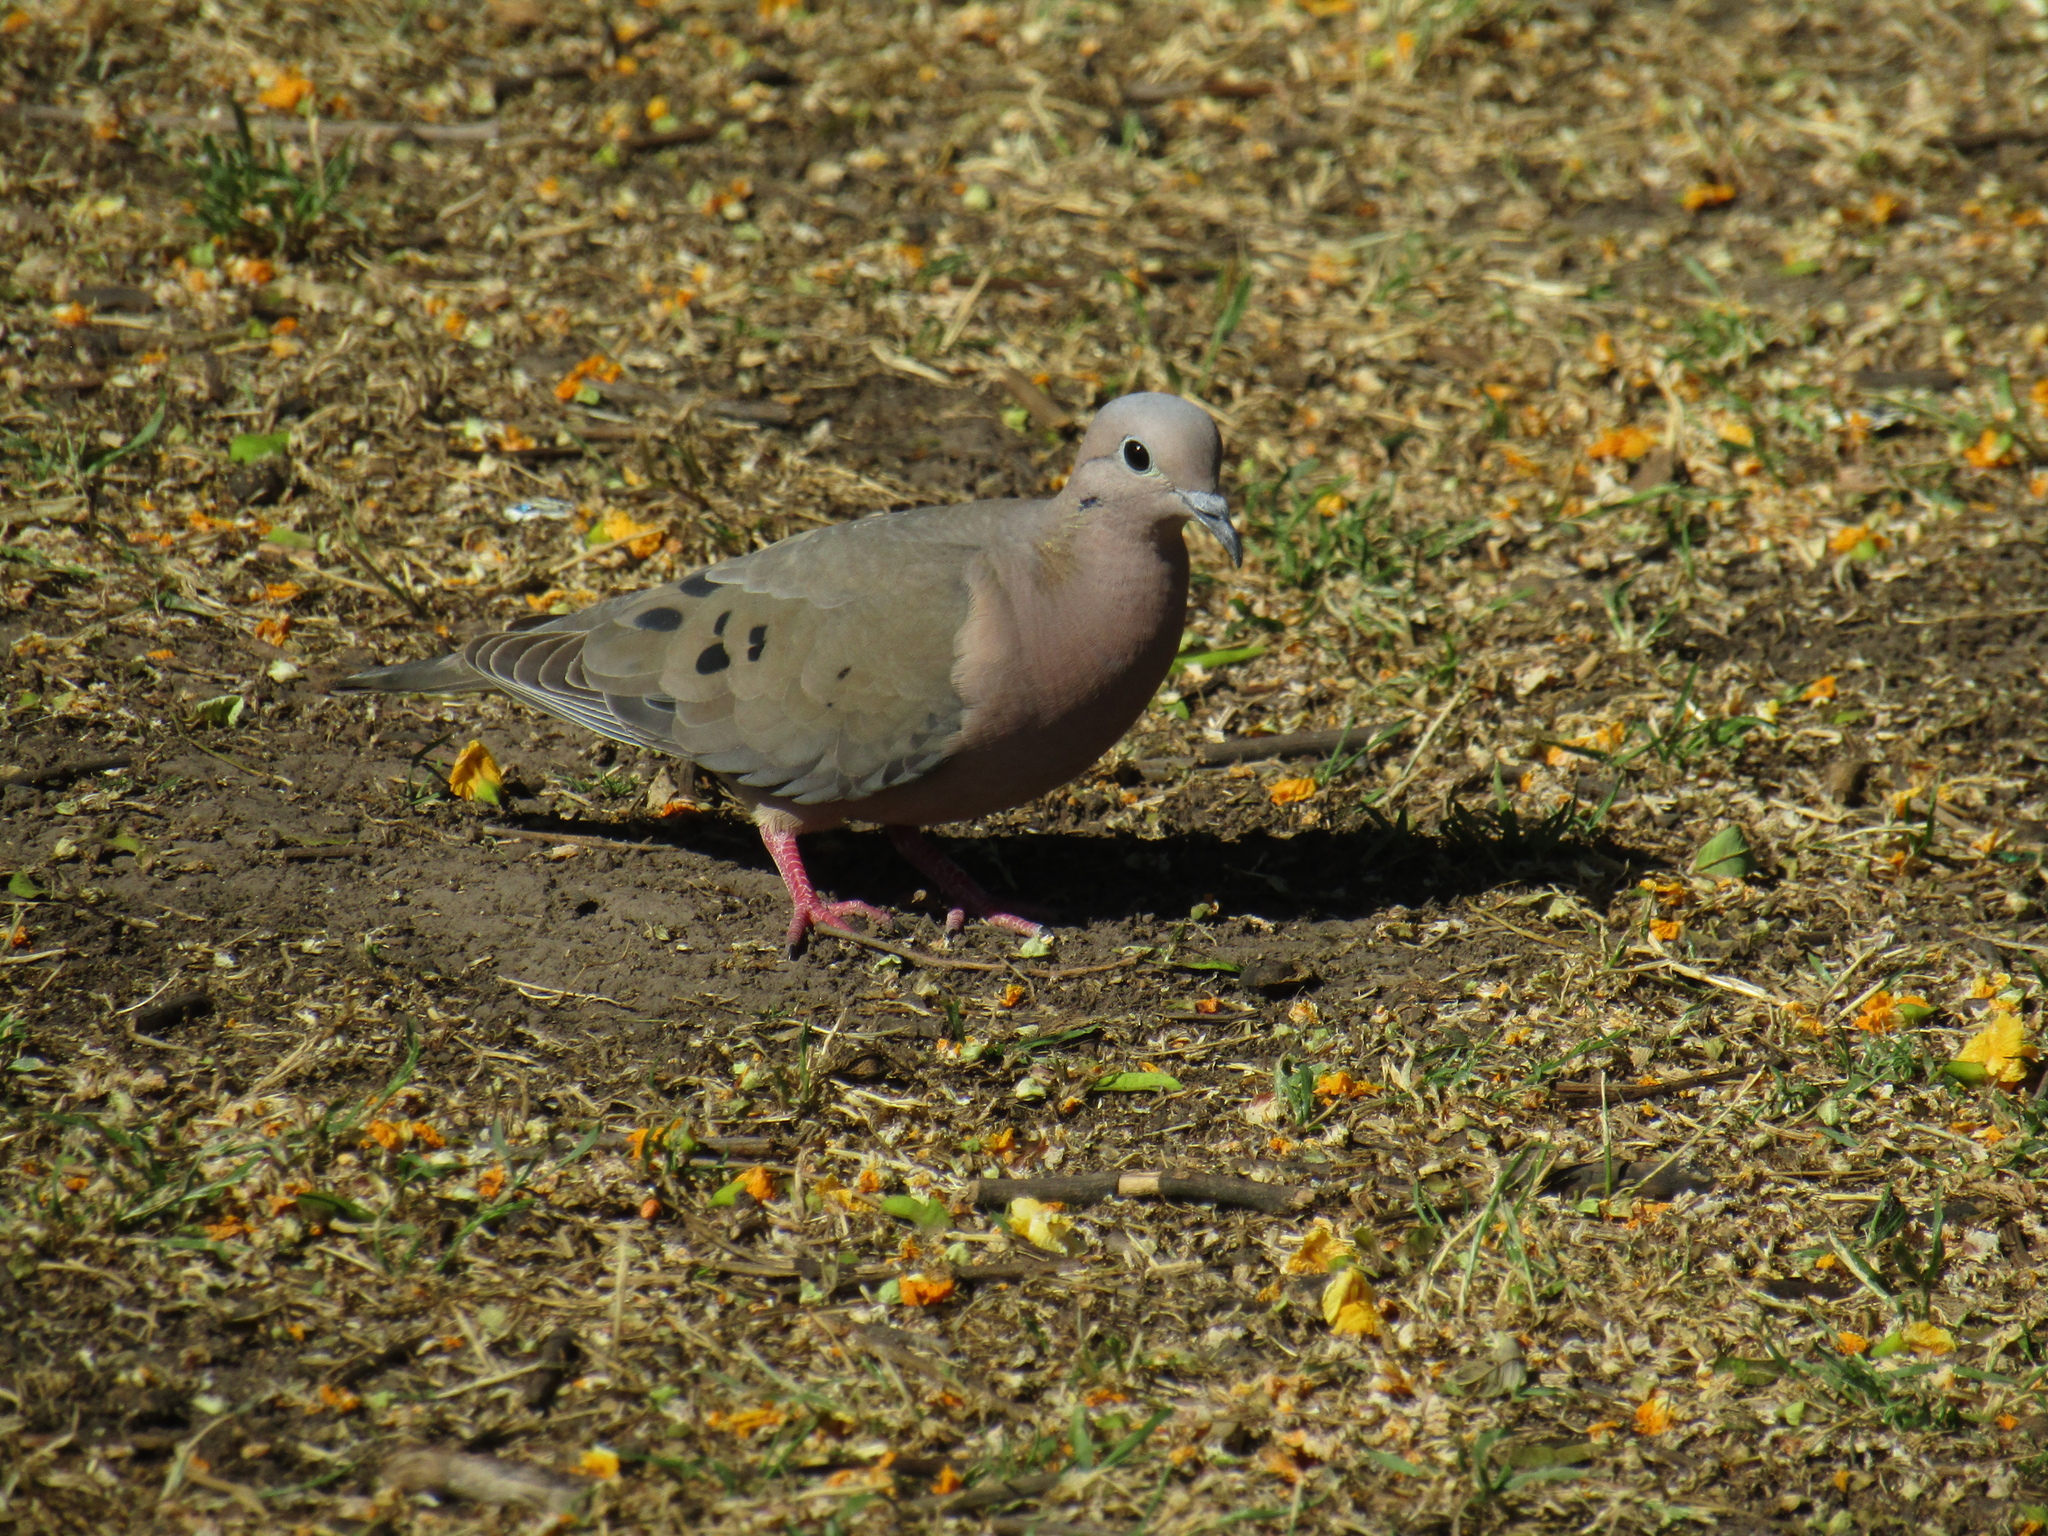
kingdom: Animalia
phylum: Chordata
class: Aves
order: Columbiformes
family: Columbidae
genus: Zenaida
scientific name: Zenaida auriculata
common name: Eared dove
